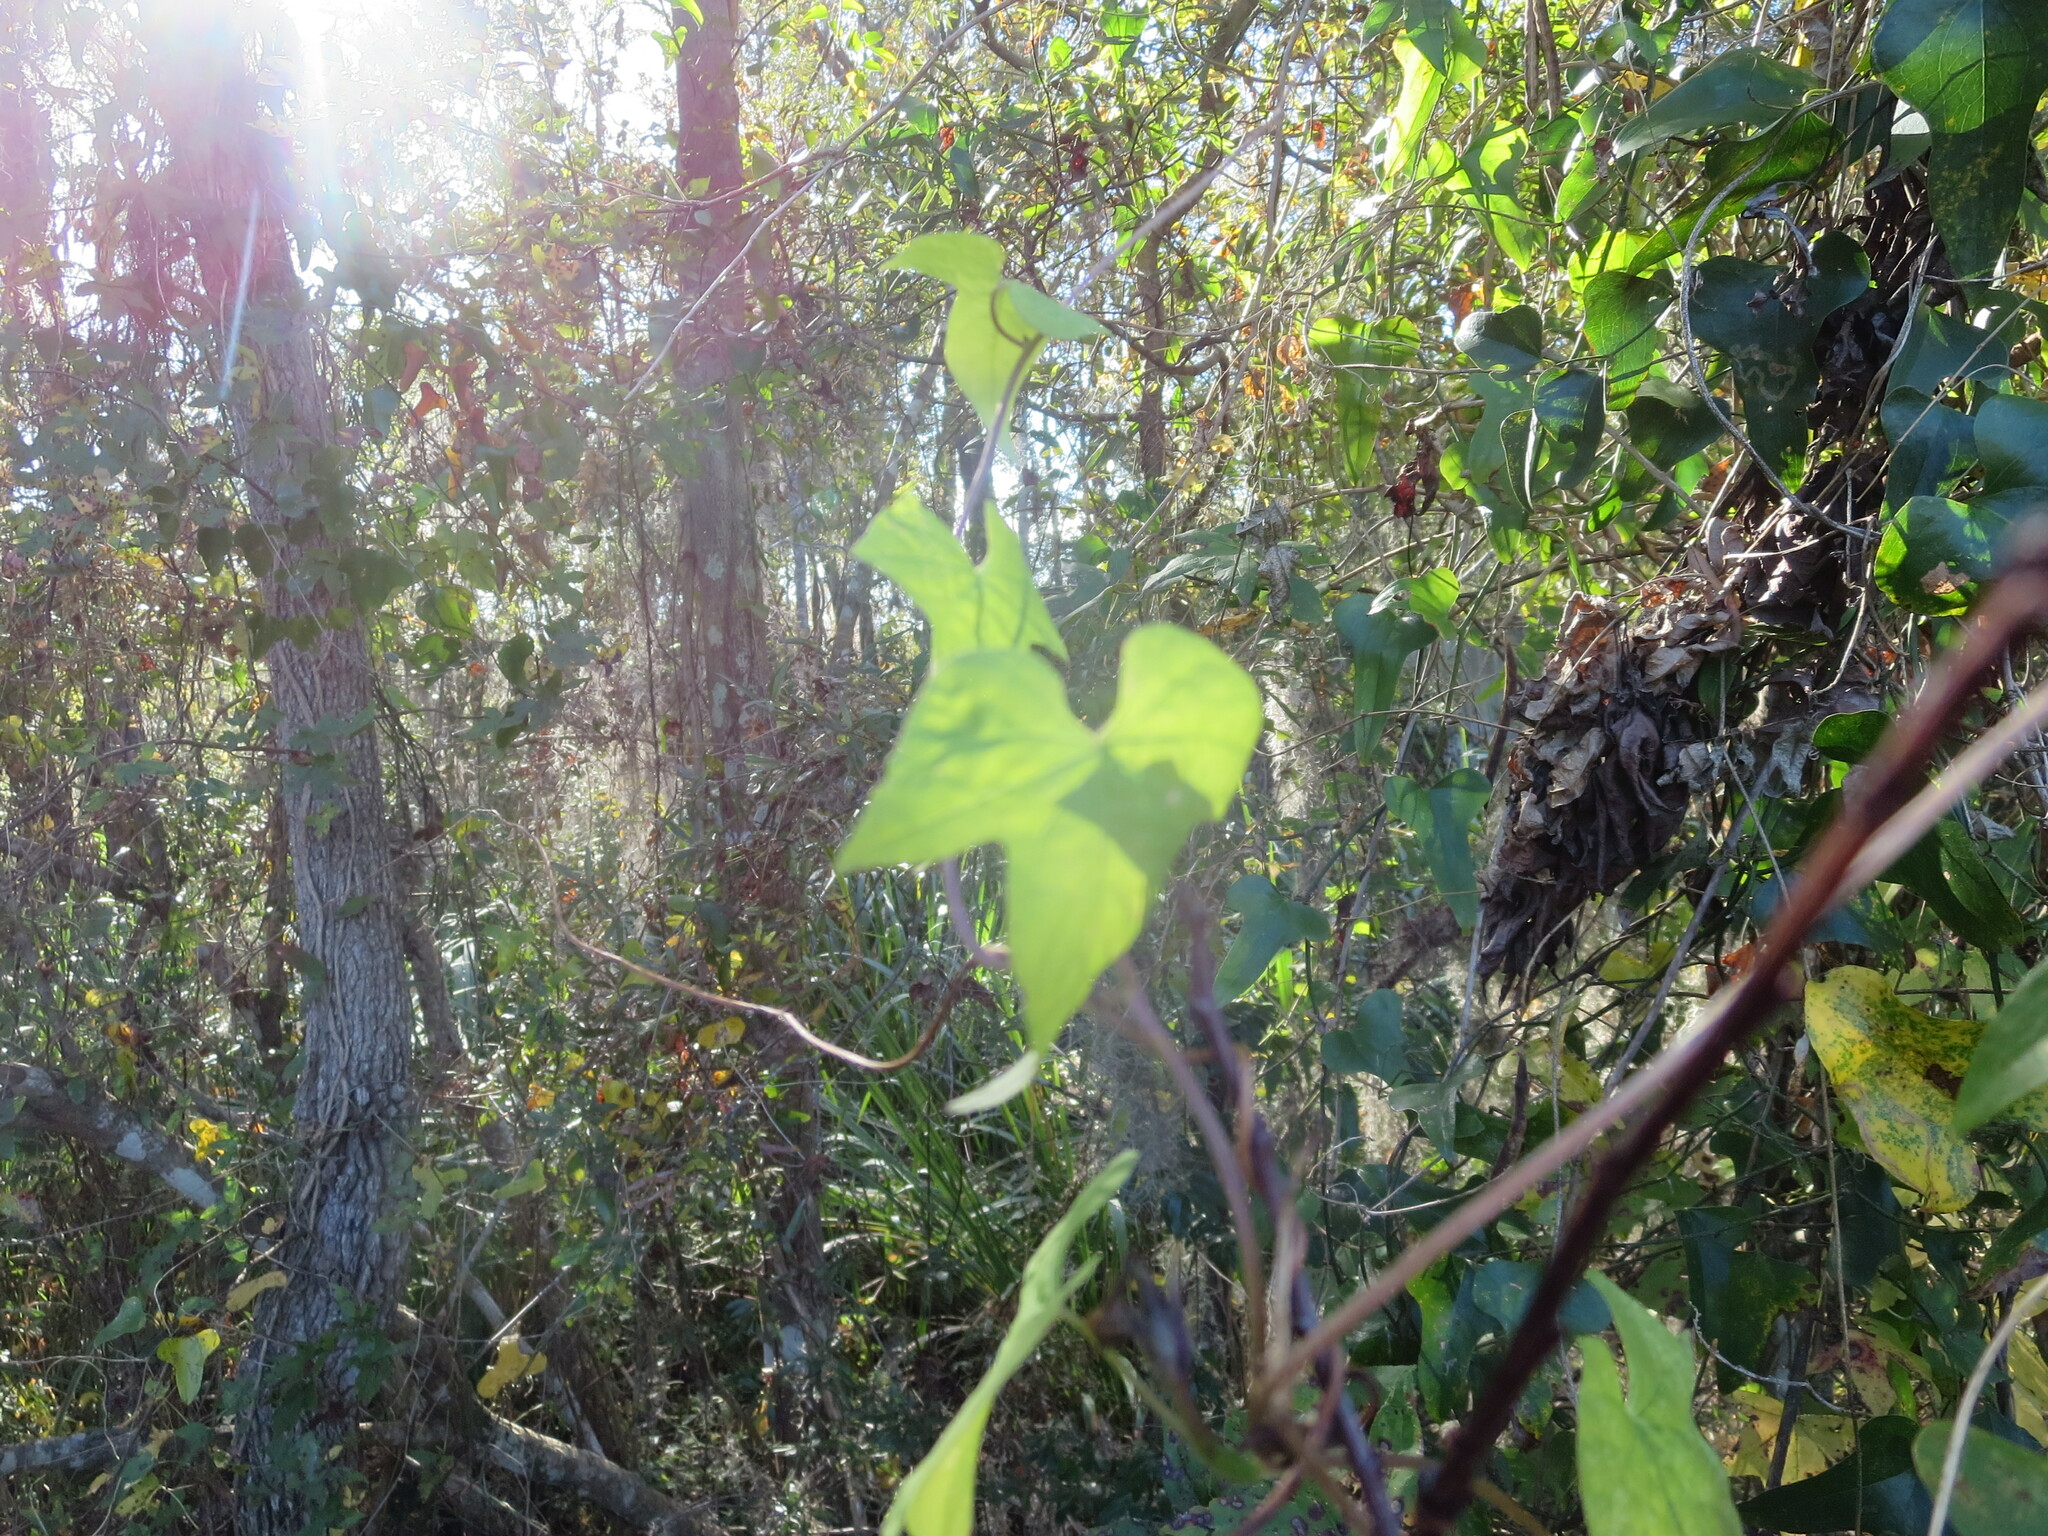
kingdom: Plantae
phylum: Tracheophyta
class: Magnoliopsida
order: Solanales
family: Convolvulaceae
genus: Ipomoea
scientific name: Ipomoea cordatotriloba
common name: Cotton morning glory
